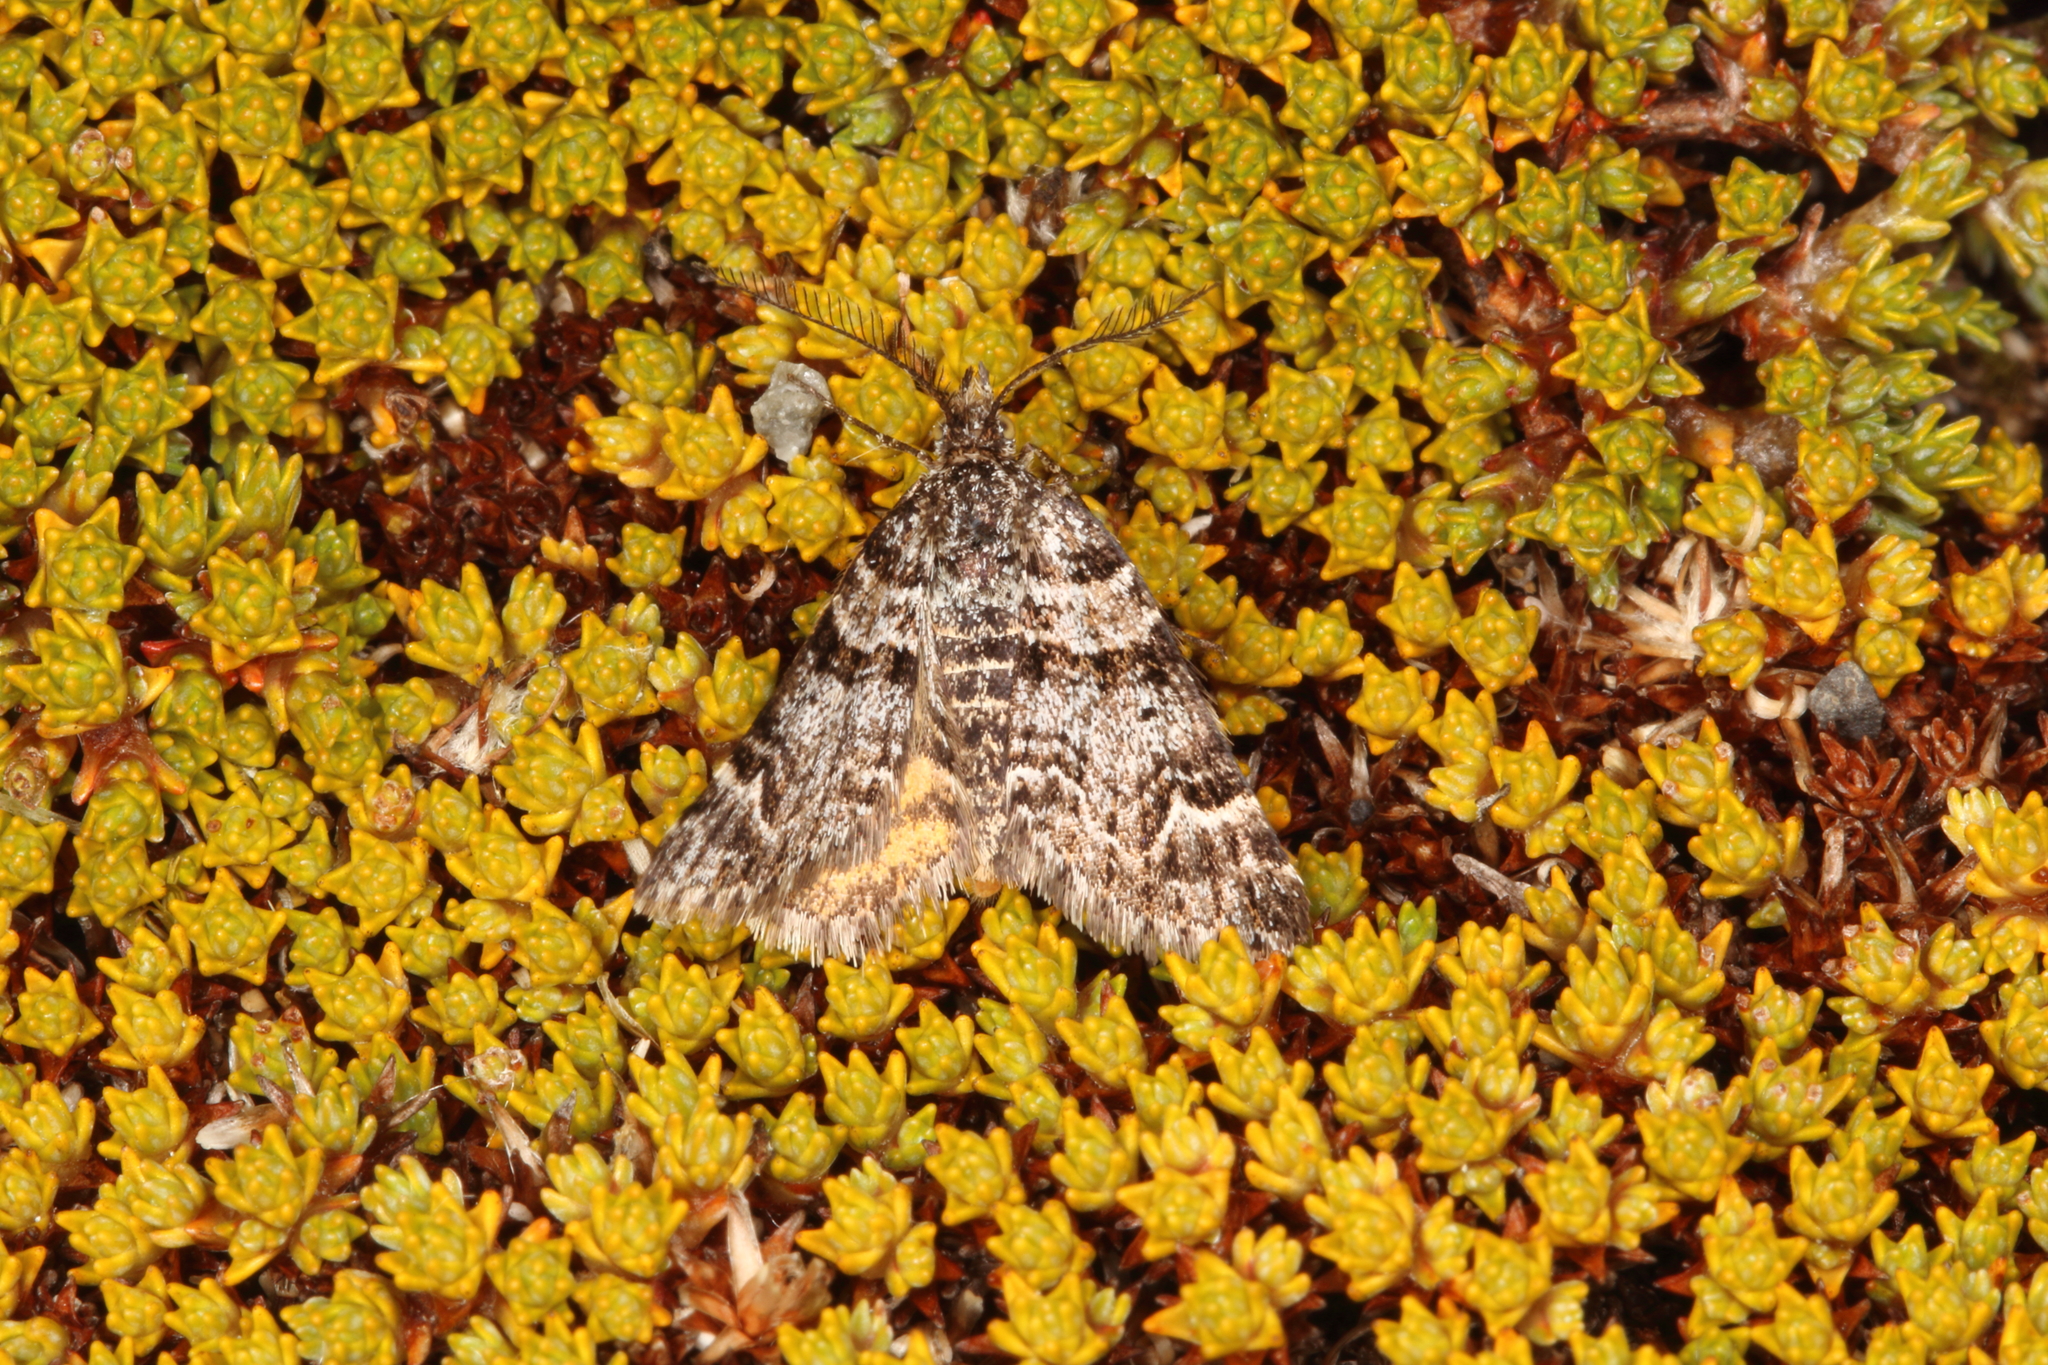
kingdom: Animalia
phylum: Arthropoda
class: Insecta
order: Lepidoptera
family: Geometridae
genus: Arctesthes
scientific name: Arctesthes catapyrrha
